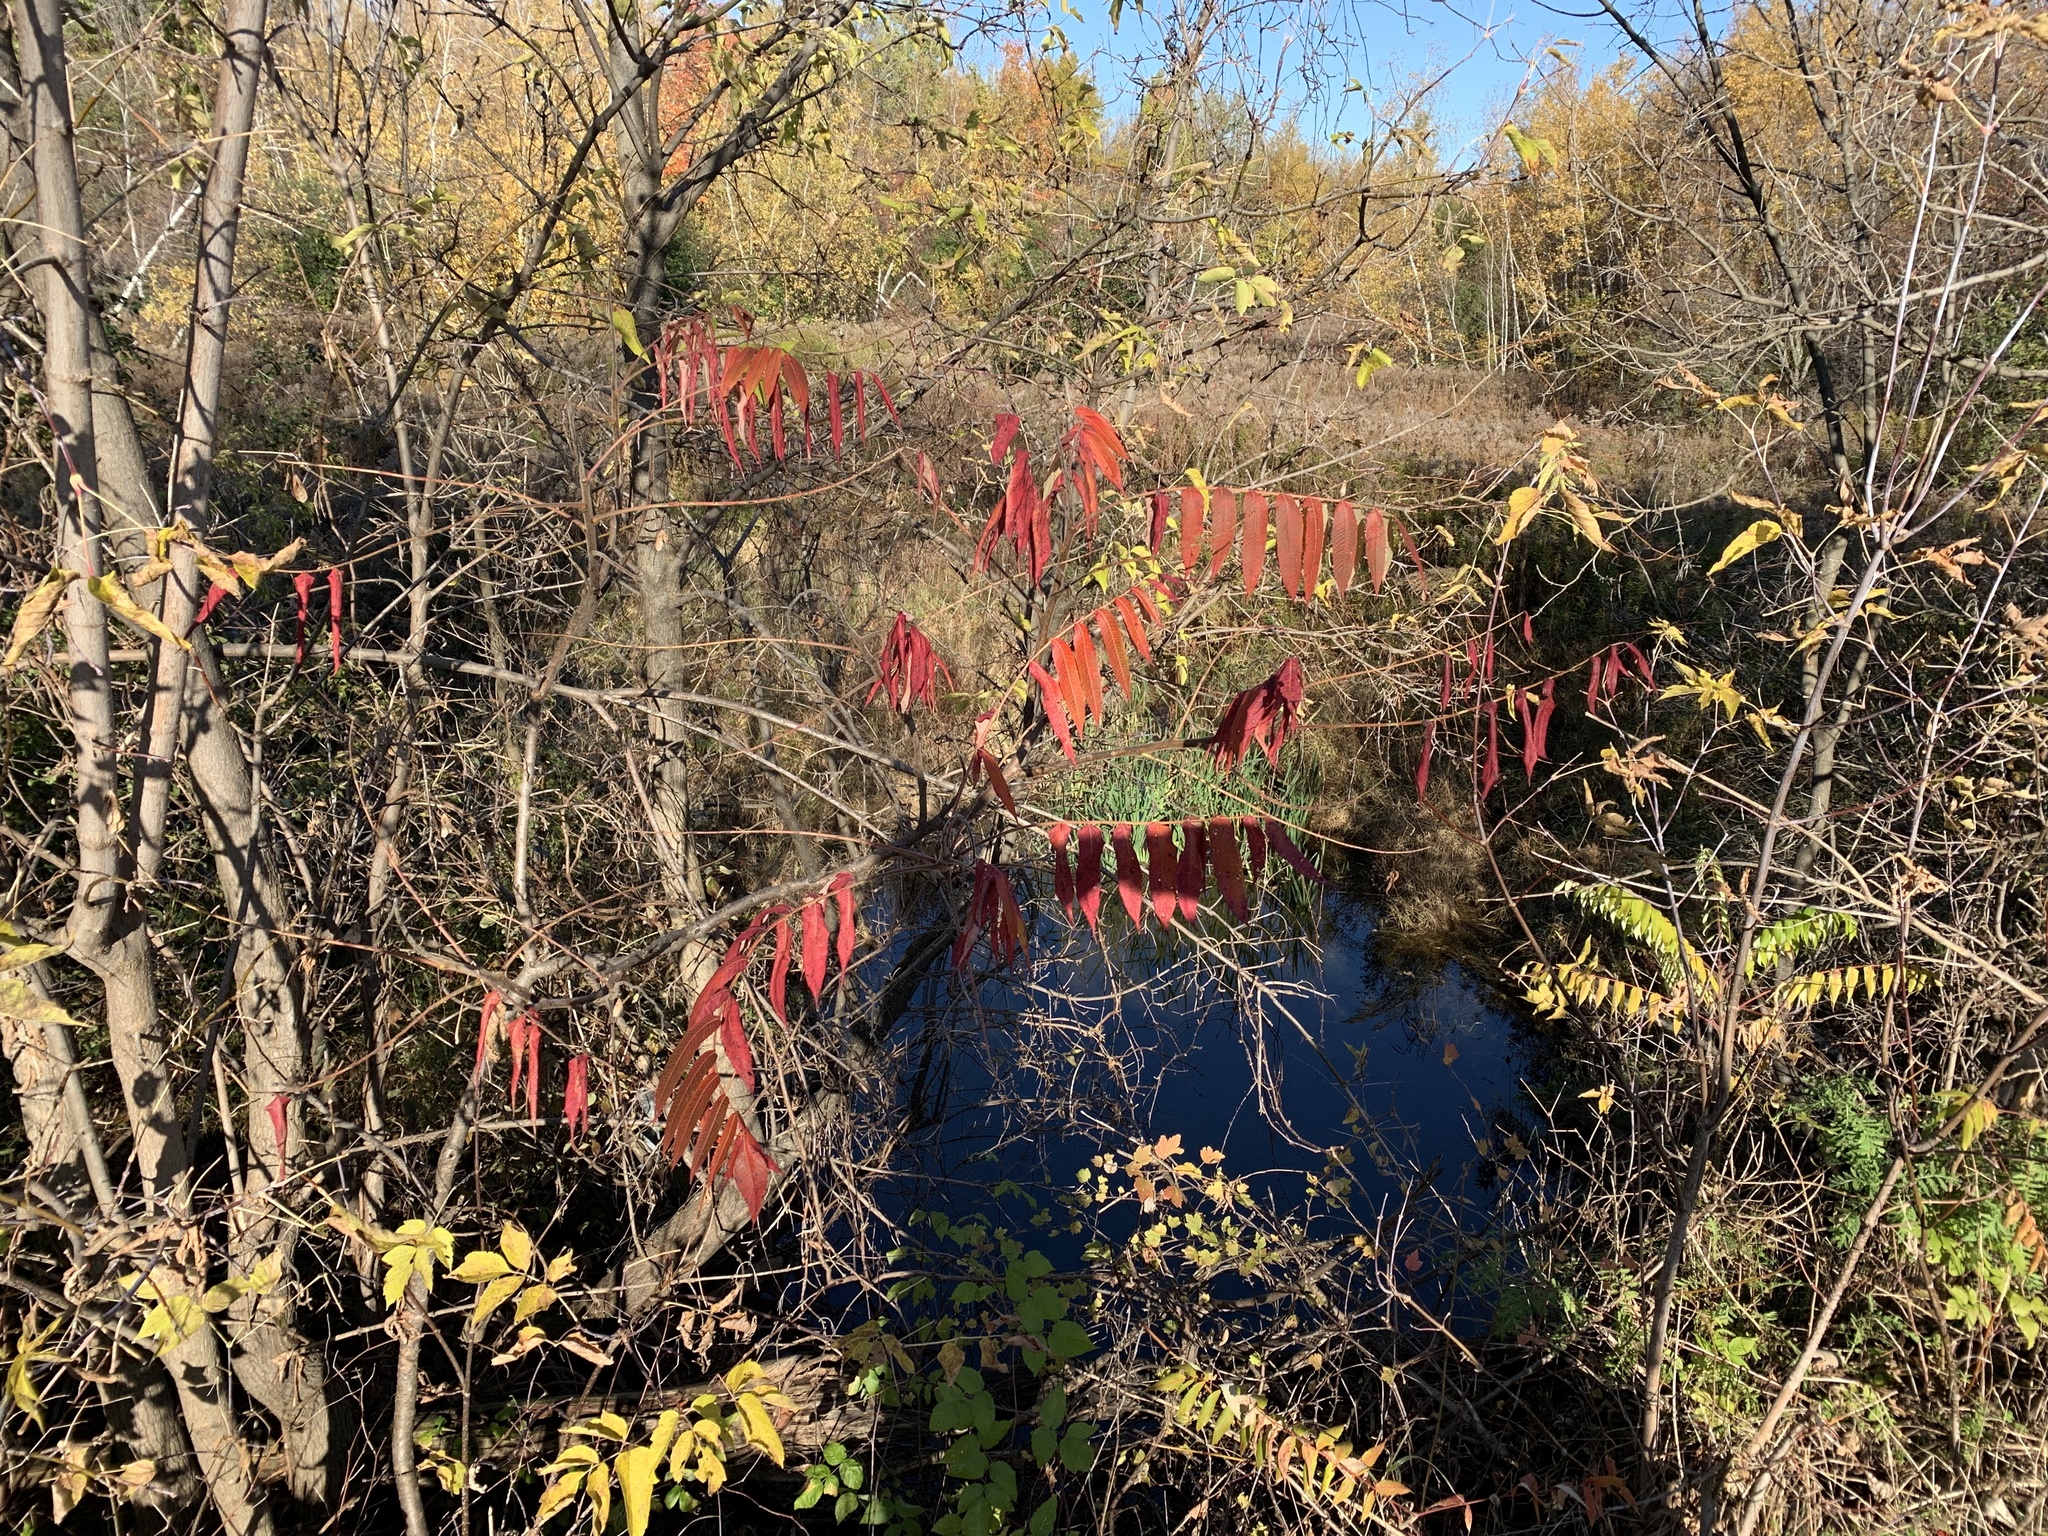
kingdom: Plantae
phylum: Tracheophyta
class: Magnoliopsida
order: Sapindales
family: Anacardiaceae
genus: Rhus
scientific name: Rhus typhina
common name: Staghorn sumac
